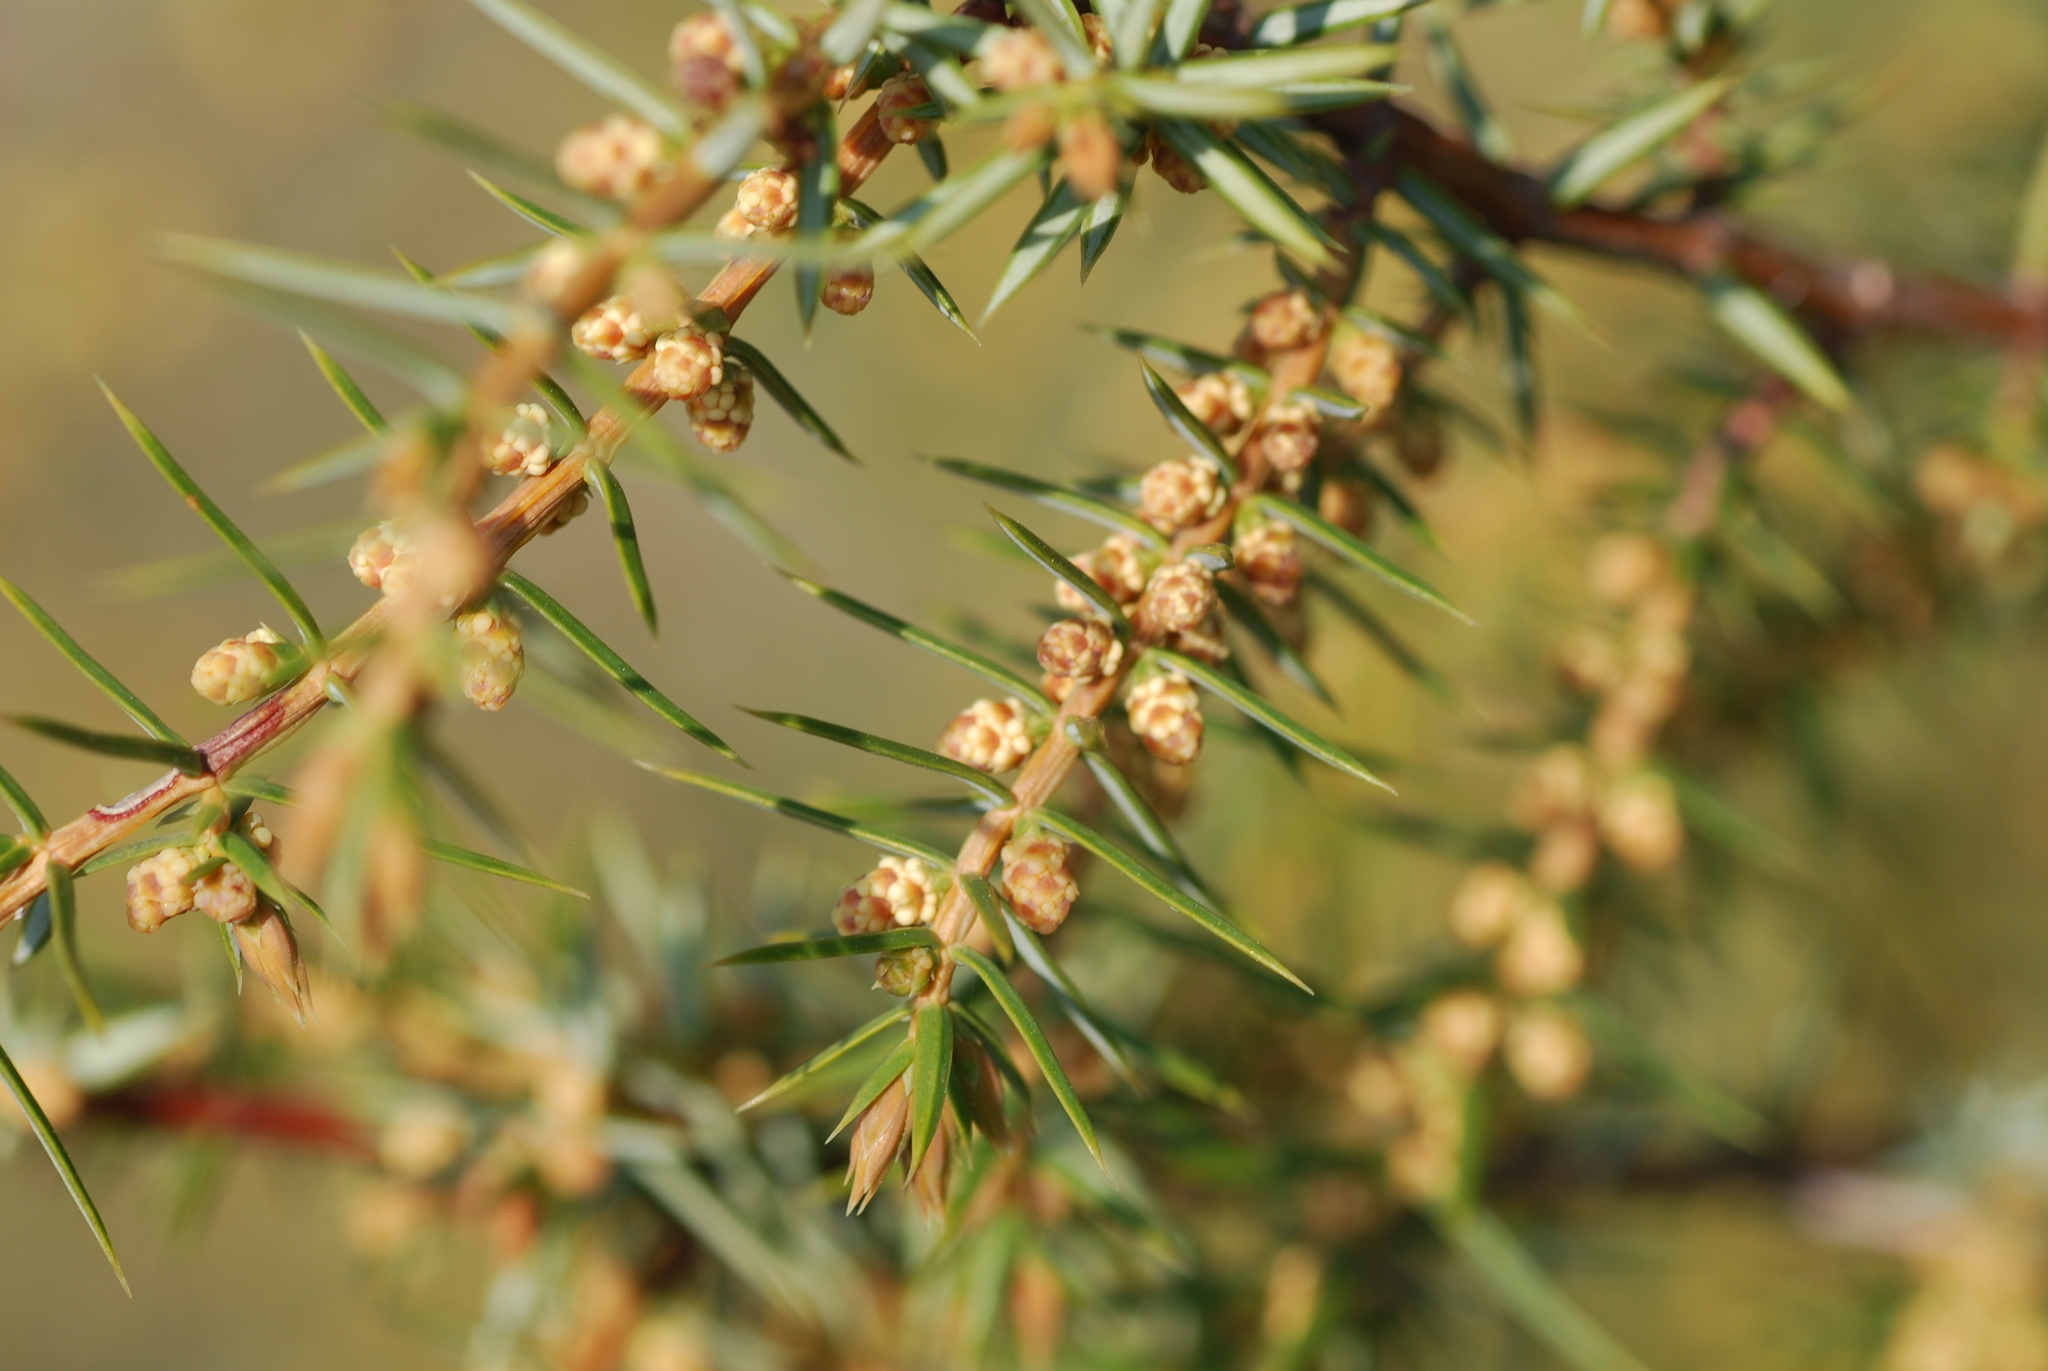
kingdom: Plantae
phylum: Tracheophyta
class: Pinopsida
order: Pinales
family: Cupressaceae
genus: Juniperus
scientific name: Juniperus communis
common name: Common juniper
